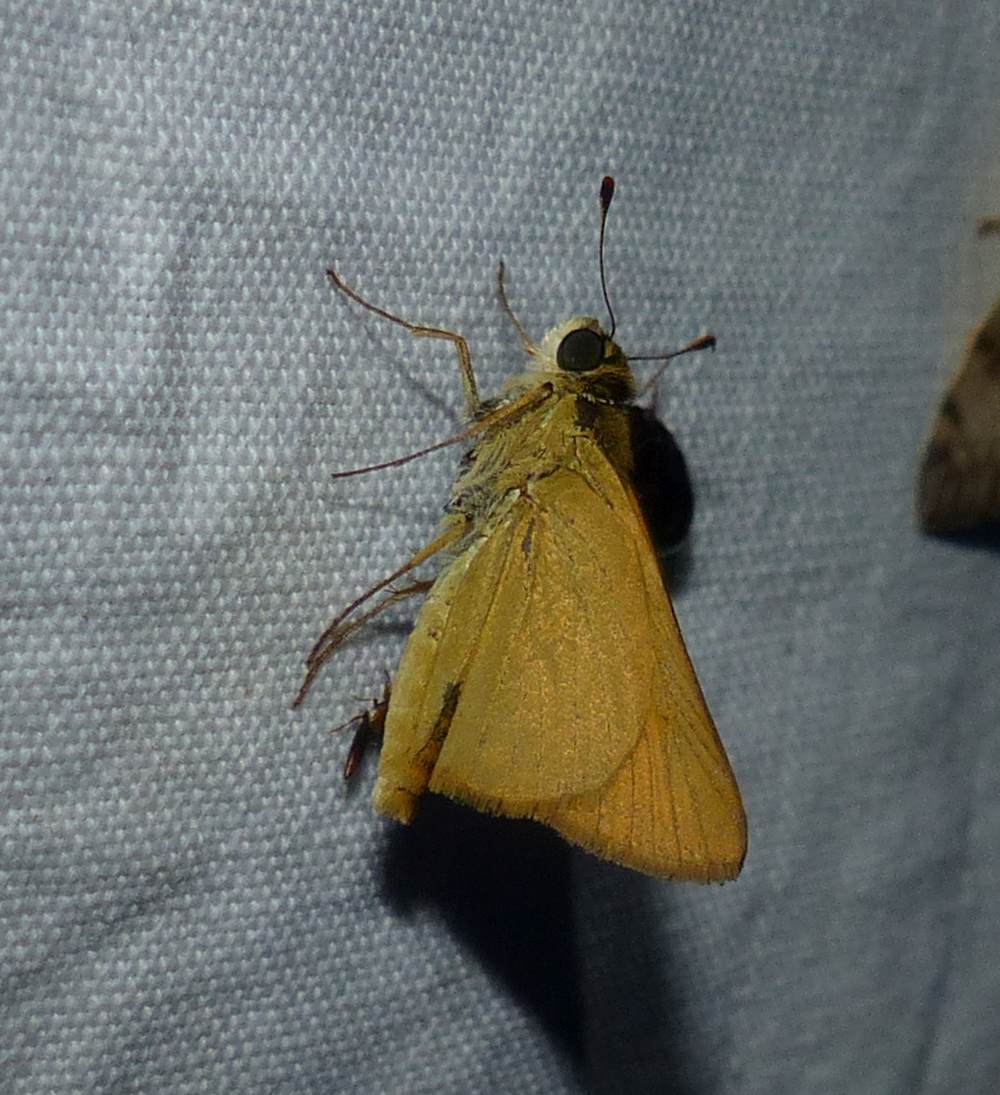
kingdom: Animalia
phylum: Arthropoda
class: Insecta
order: Lepidoptera
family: Hesperiidae
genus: Atrytone
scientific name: Atrytone delaware
